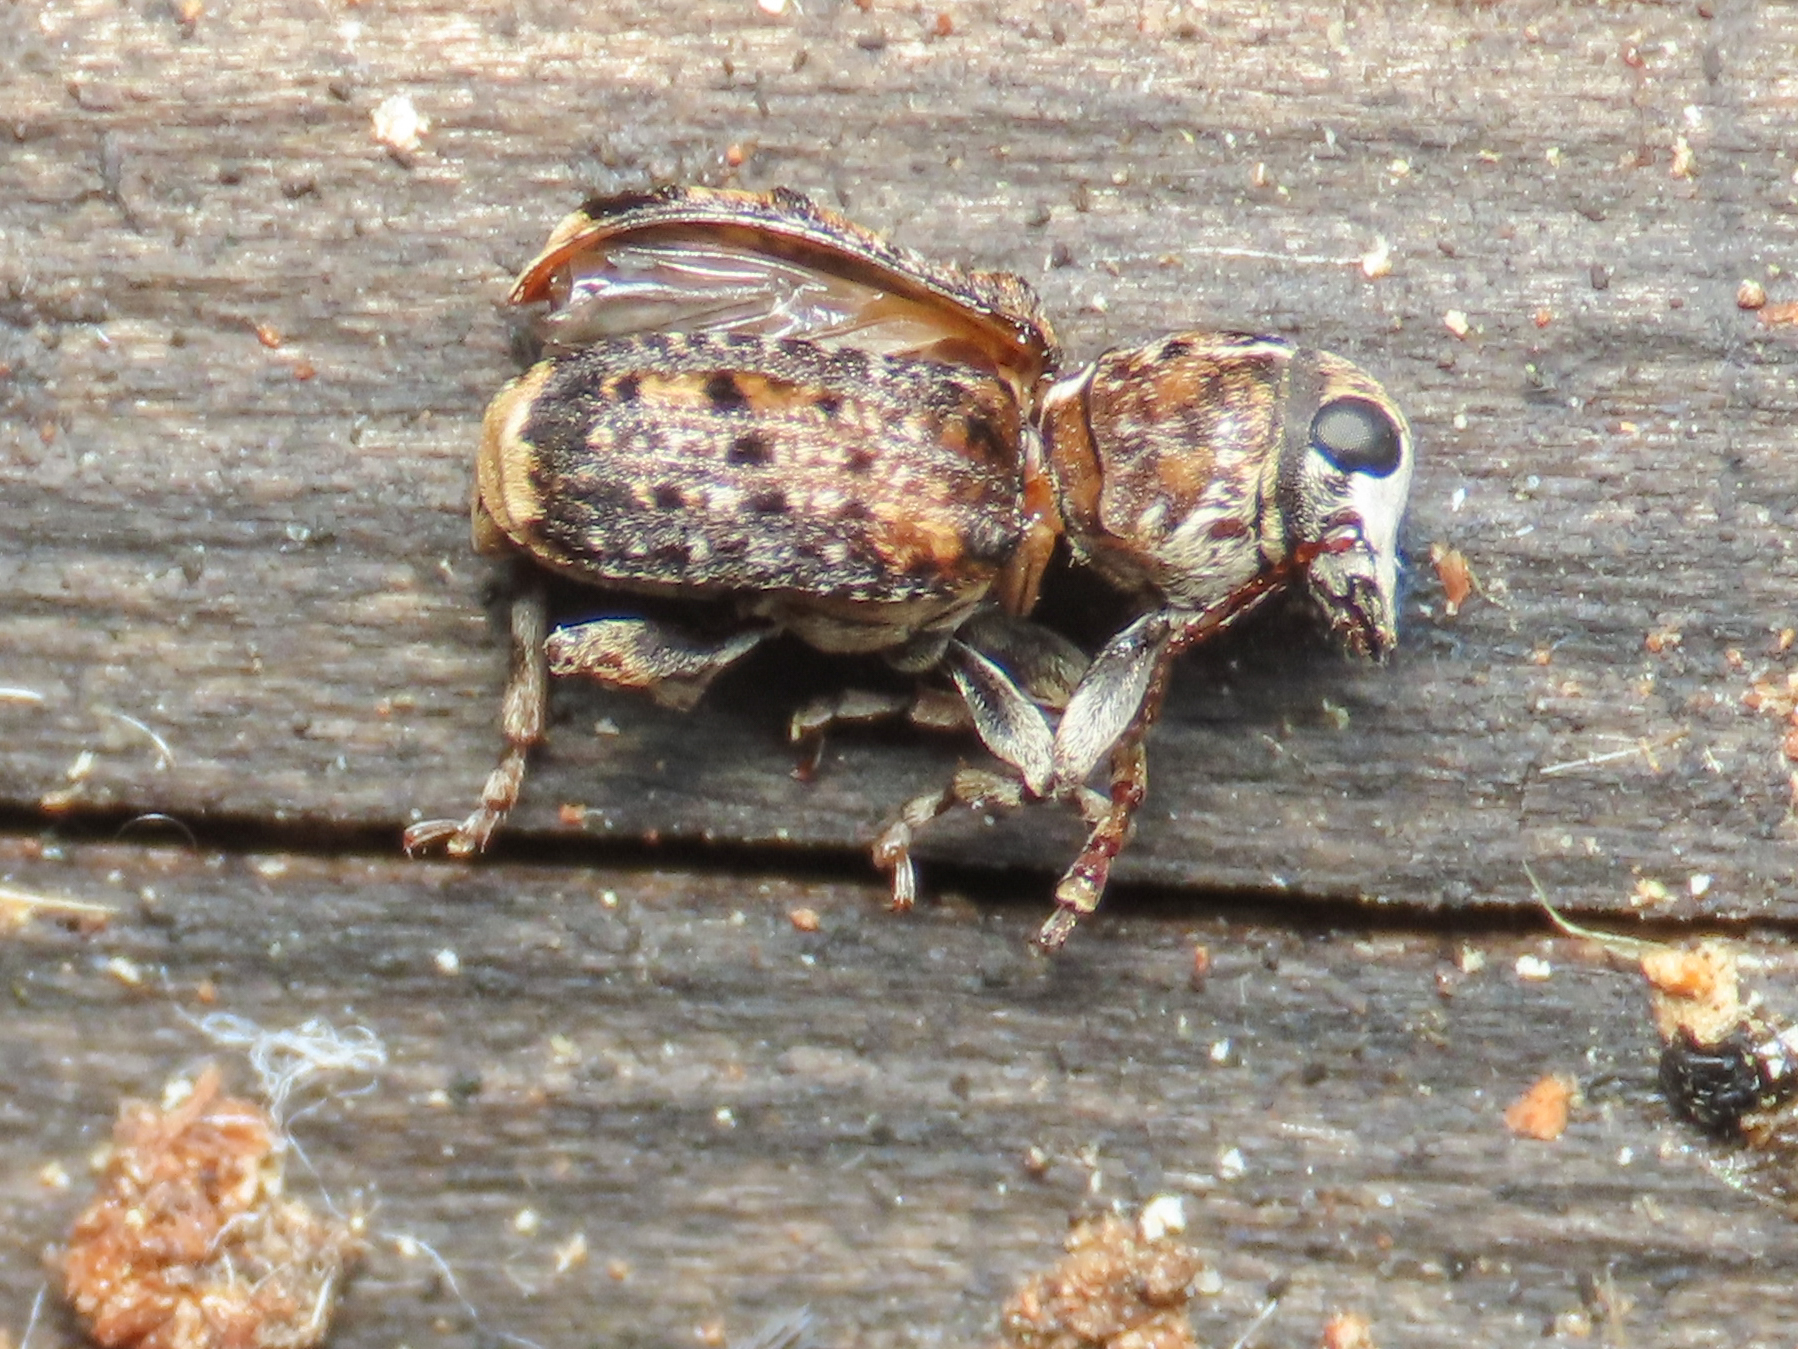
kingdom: Animalia
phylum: Arthropoda
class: Insecta
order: Coleoptera
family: Anthribidae
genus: Dissoleucas
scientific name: Dissoleucas niveirostris
